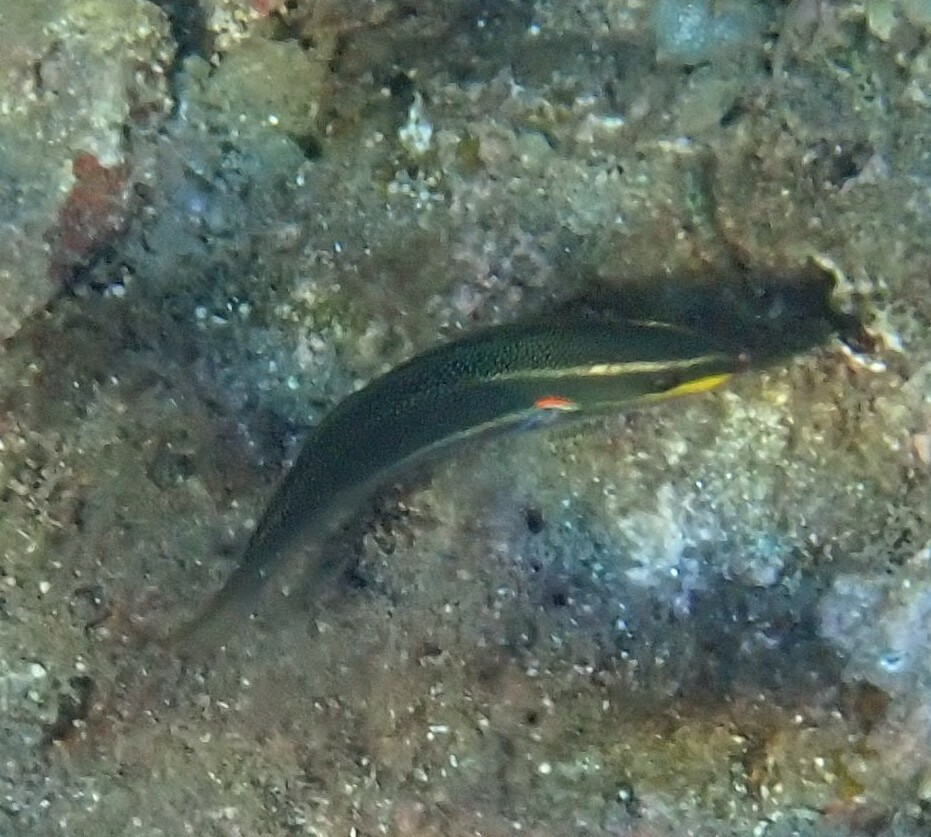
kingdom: Animalia
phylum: Chordata
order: Perciformes
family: Labridae
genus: Stethojulis
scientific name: Stethojulis bandanensis
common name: Red shoulder wrasse
